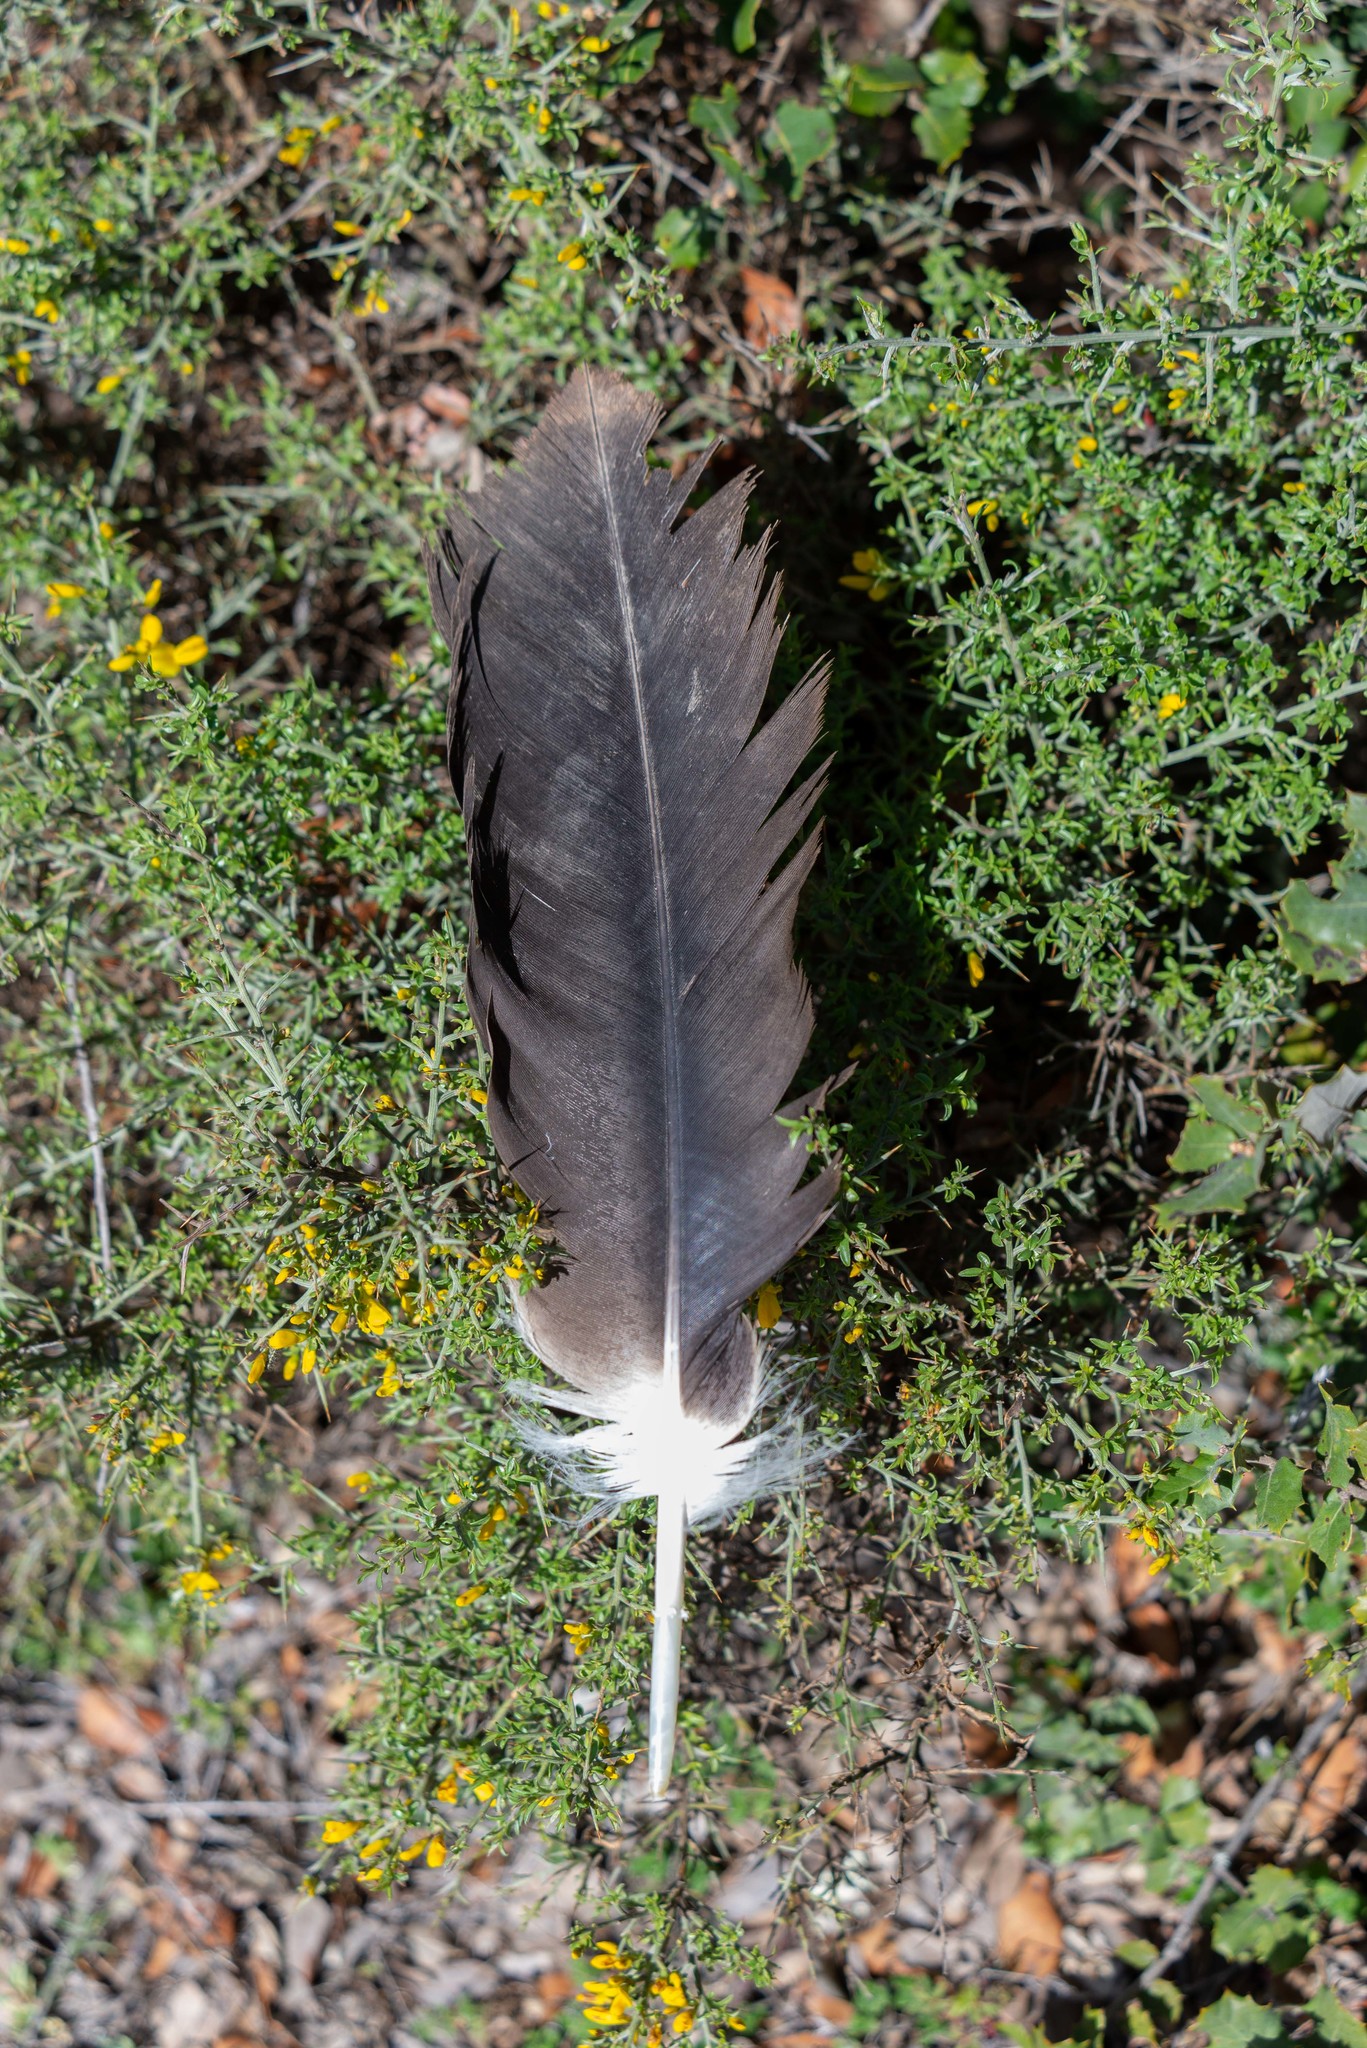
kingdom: Animalia
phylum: Chordata
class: Aves
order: Accipitriformes
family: Accipitridae
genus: Gyps
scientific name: Gyps fulvus
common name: Griffon vulture
